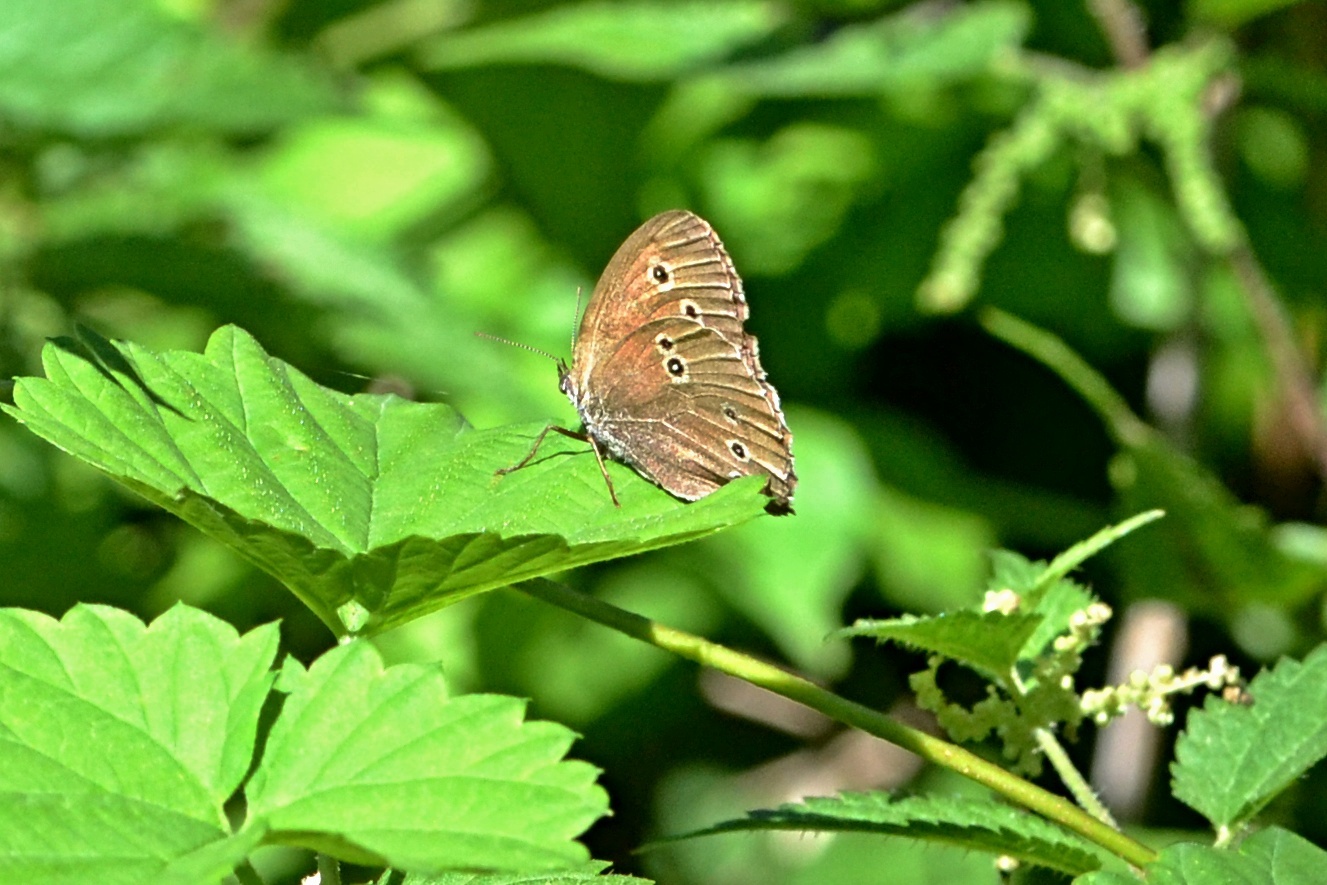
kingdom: Animalia
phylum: Arthropoda
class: Insecta
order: Lepidoptera
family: Nymphalidae
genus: Aphantopus
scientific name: Aphantopus hyperantus
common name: Ringlet
